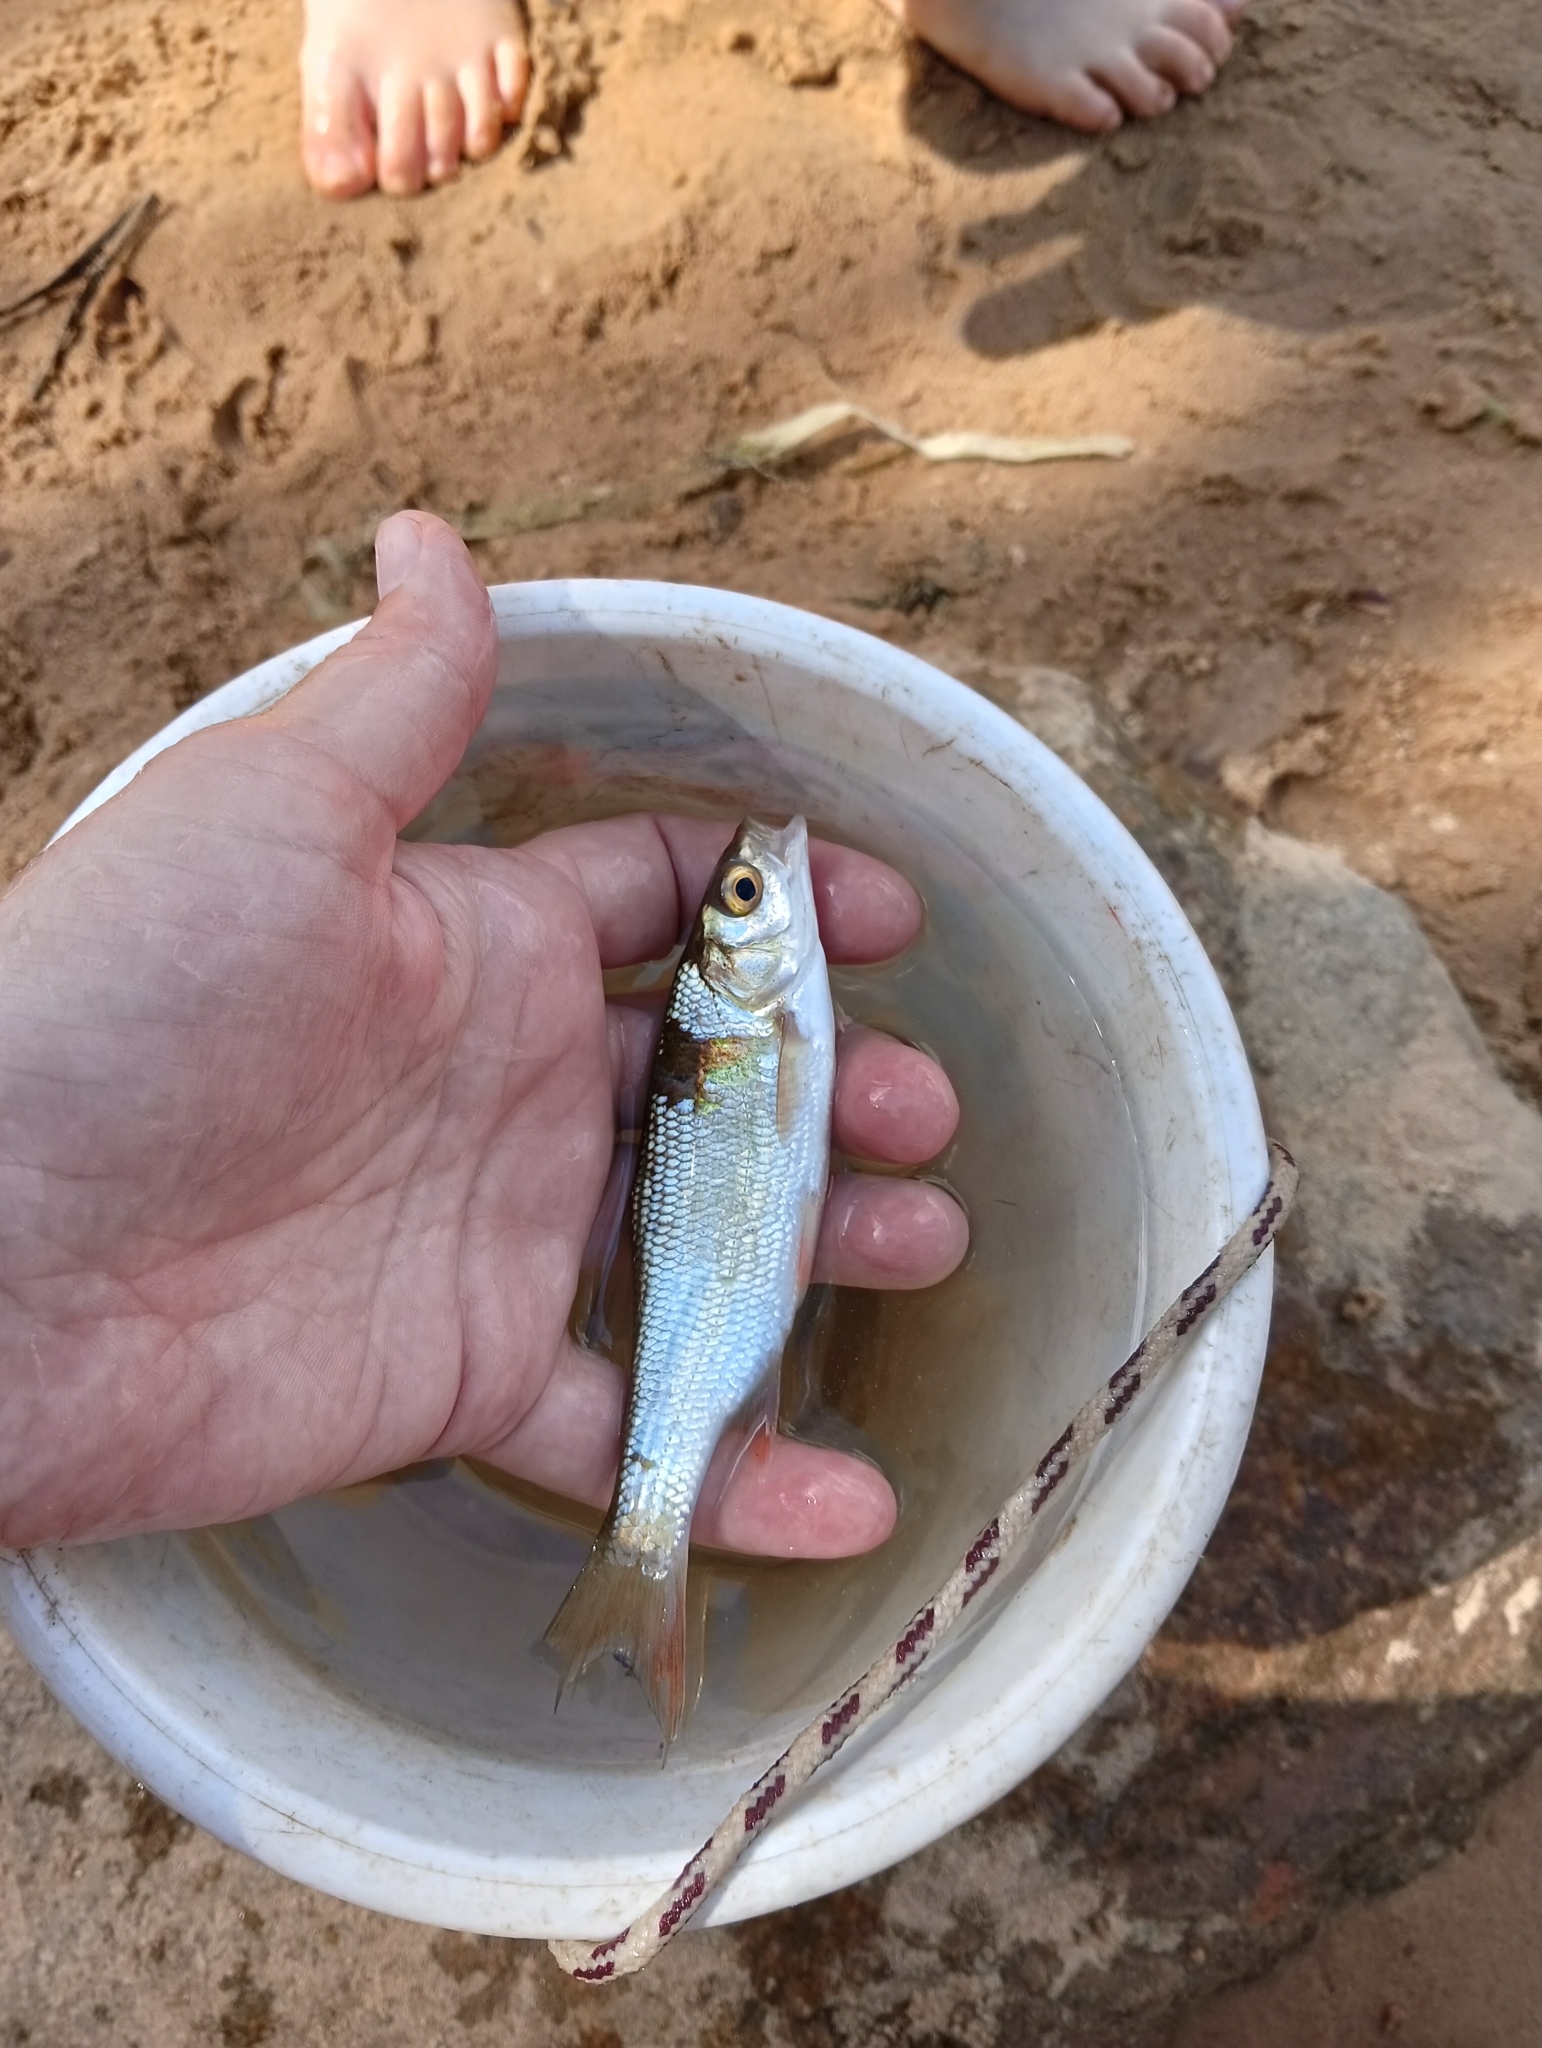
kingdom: Animalia
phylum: Chordata
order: Cypriniformes
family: Cyprinidae
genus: Leuciscus
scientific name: Leuciscus leuciscus
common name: Dace
